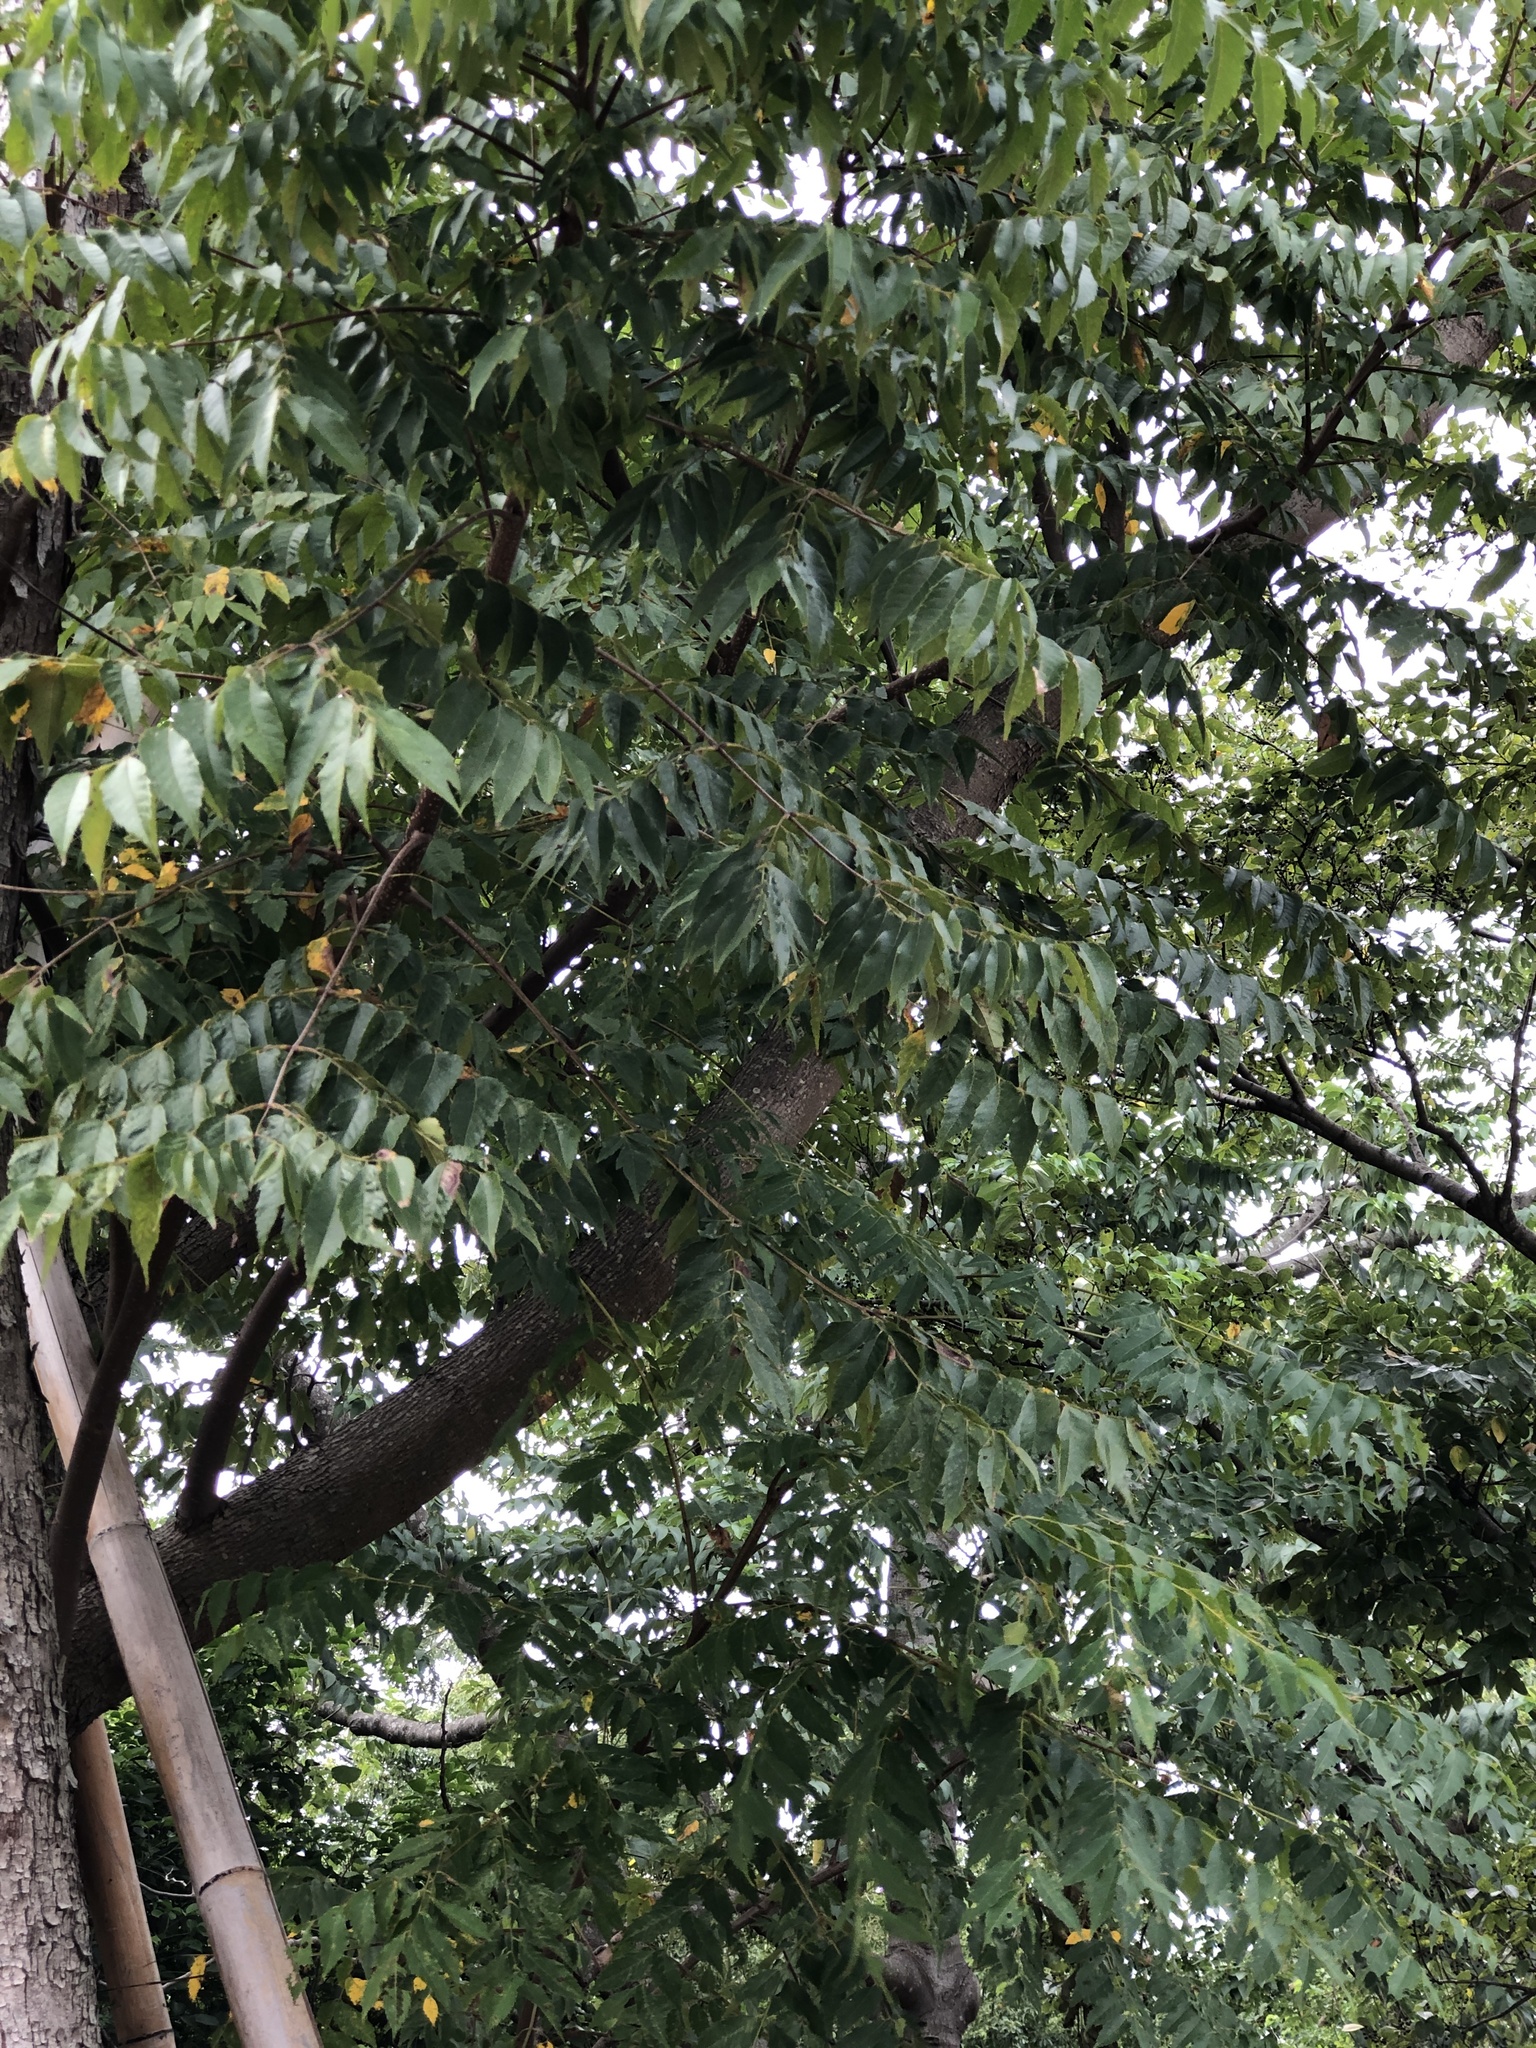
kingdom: Plantae
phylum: Tracheophyta
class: Magnoliopsida
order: Rosales
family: Cannabaceae
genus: Trema
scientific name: Trema orientale
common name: Indian charcoal tree
